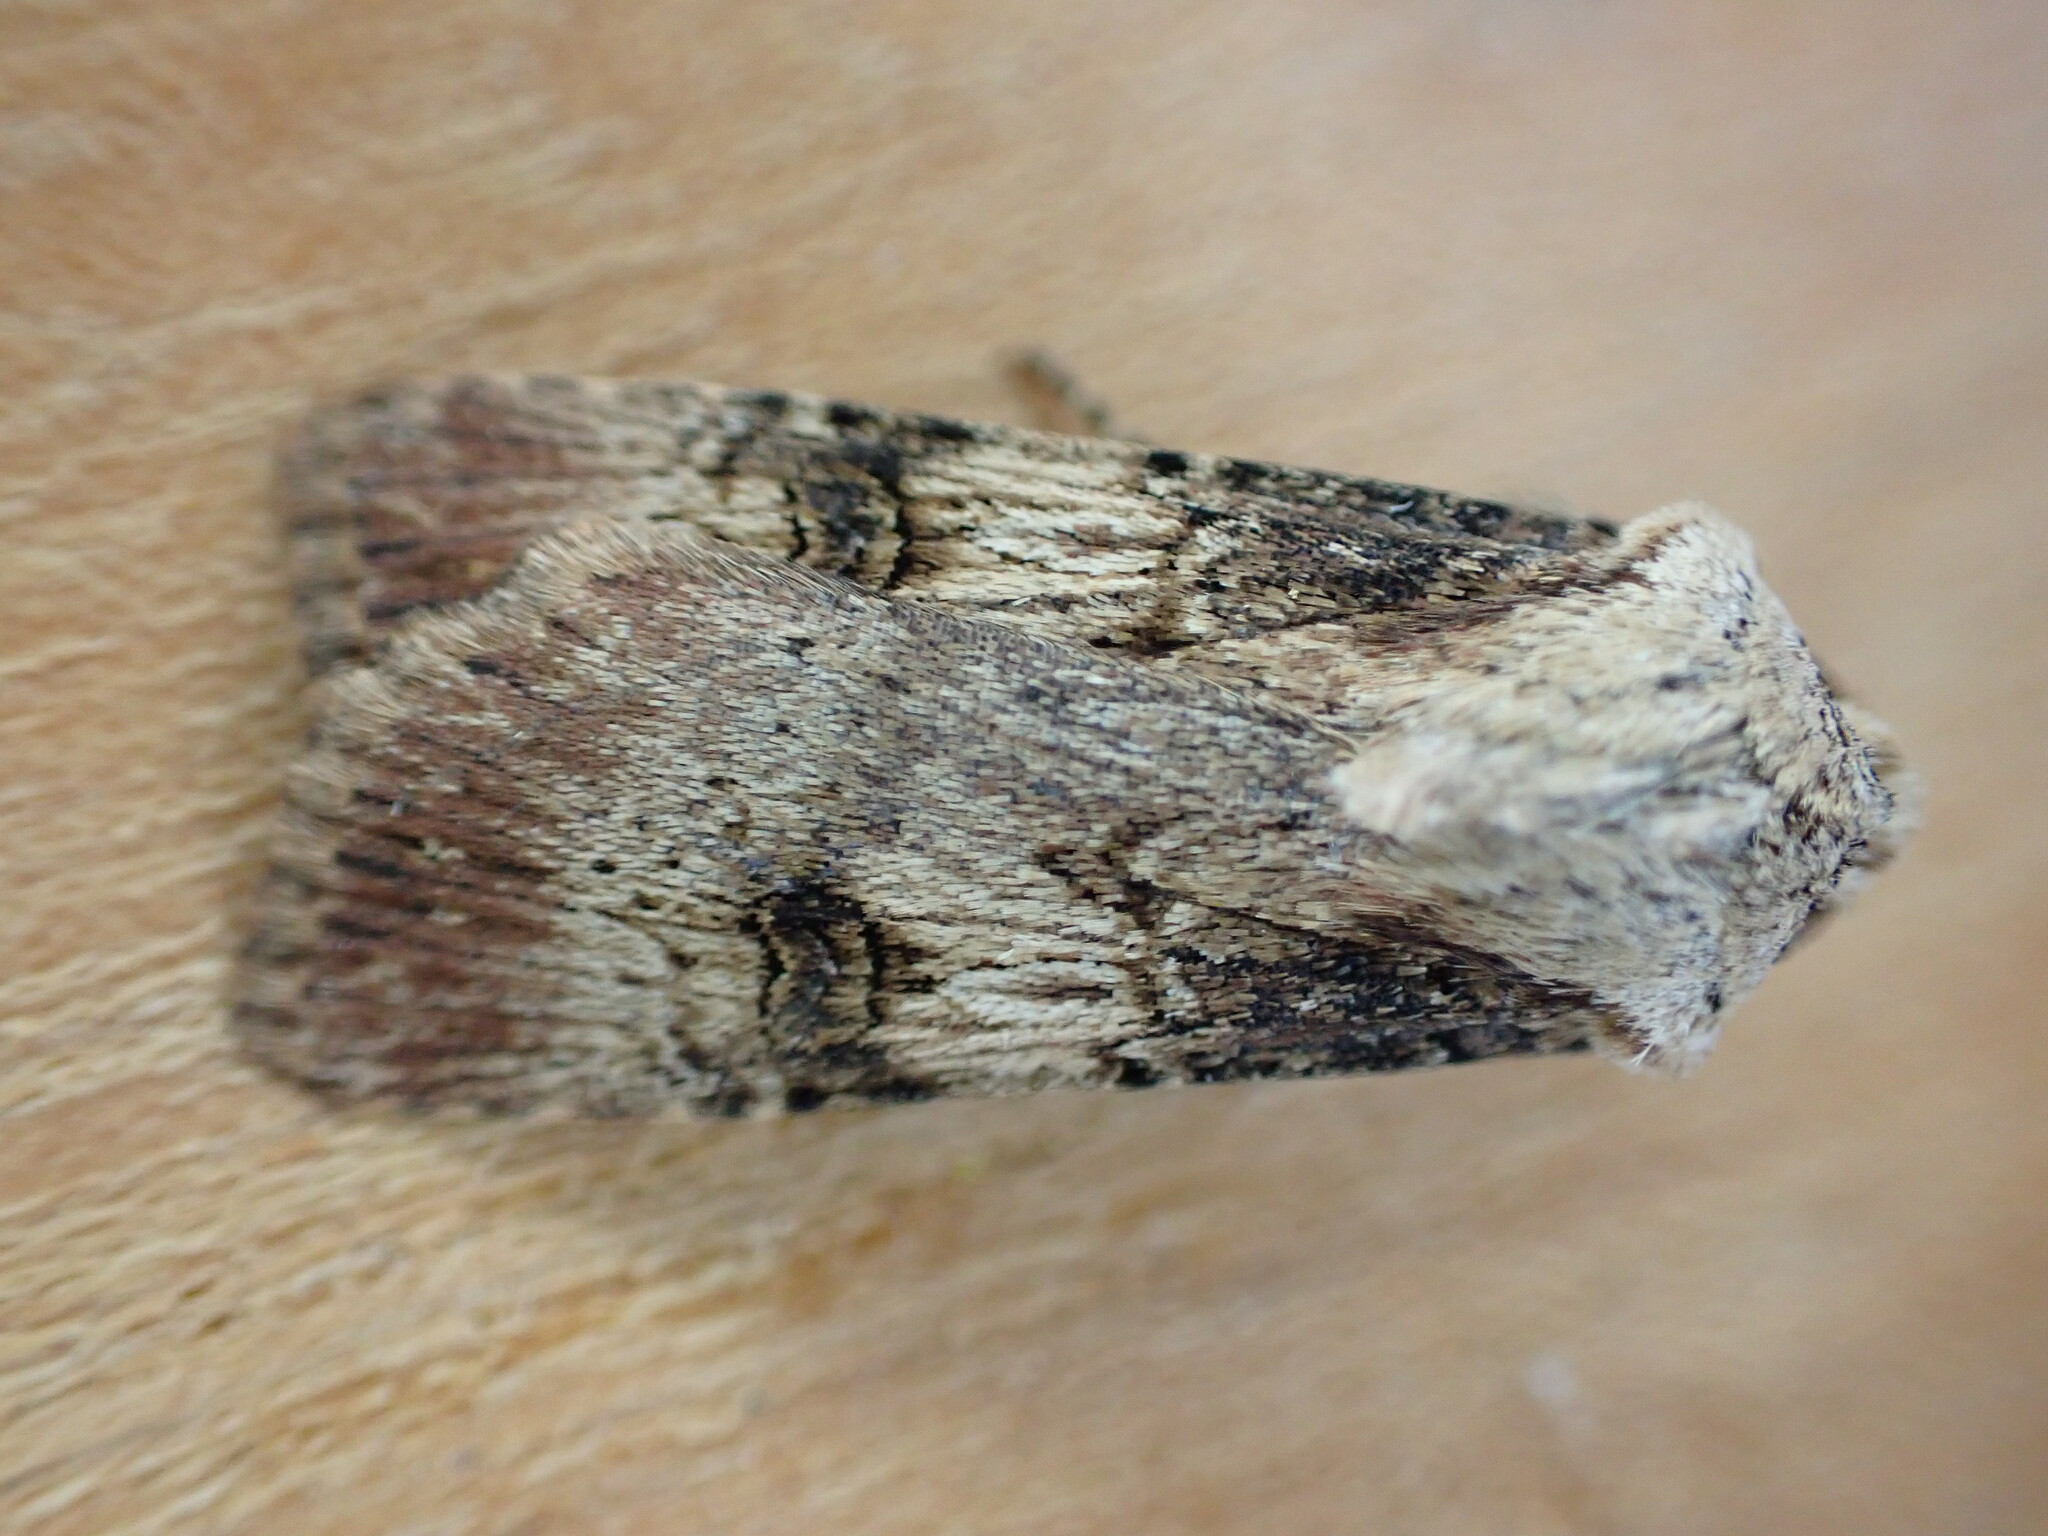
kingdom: Animalia
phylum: Arthropoda
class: Insecta
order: Lepidoptera
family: Noctuidae
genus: Agrotis
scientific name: Agrotis puta
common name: Shuttle-shaped dart
